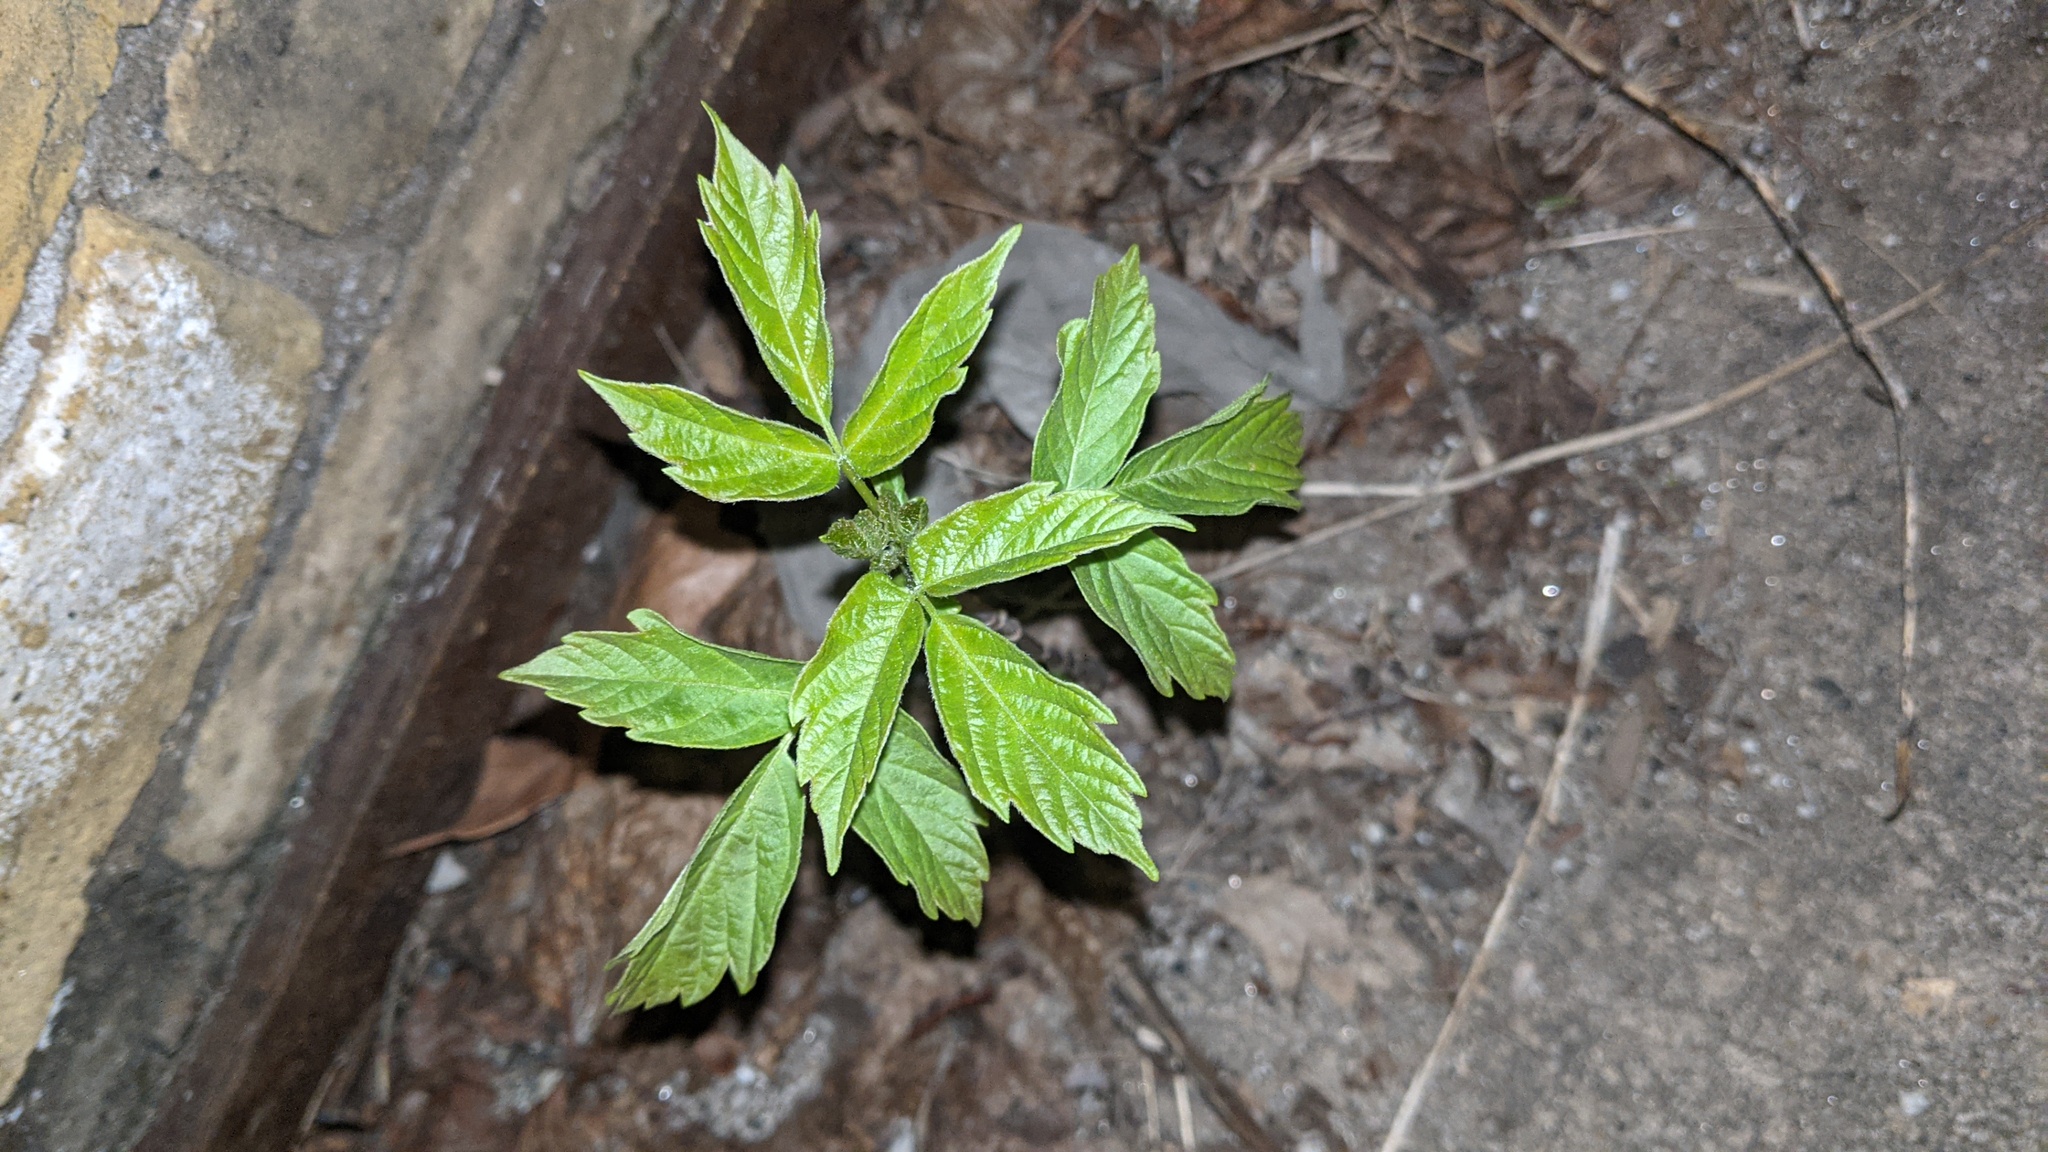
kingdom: Plantae
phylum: Tracheophyta
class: Magnoliopsida
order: Sapindales
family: Sapindaceae
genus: Acer
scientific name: Acer negundo
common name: Ashleaf maple
